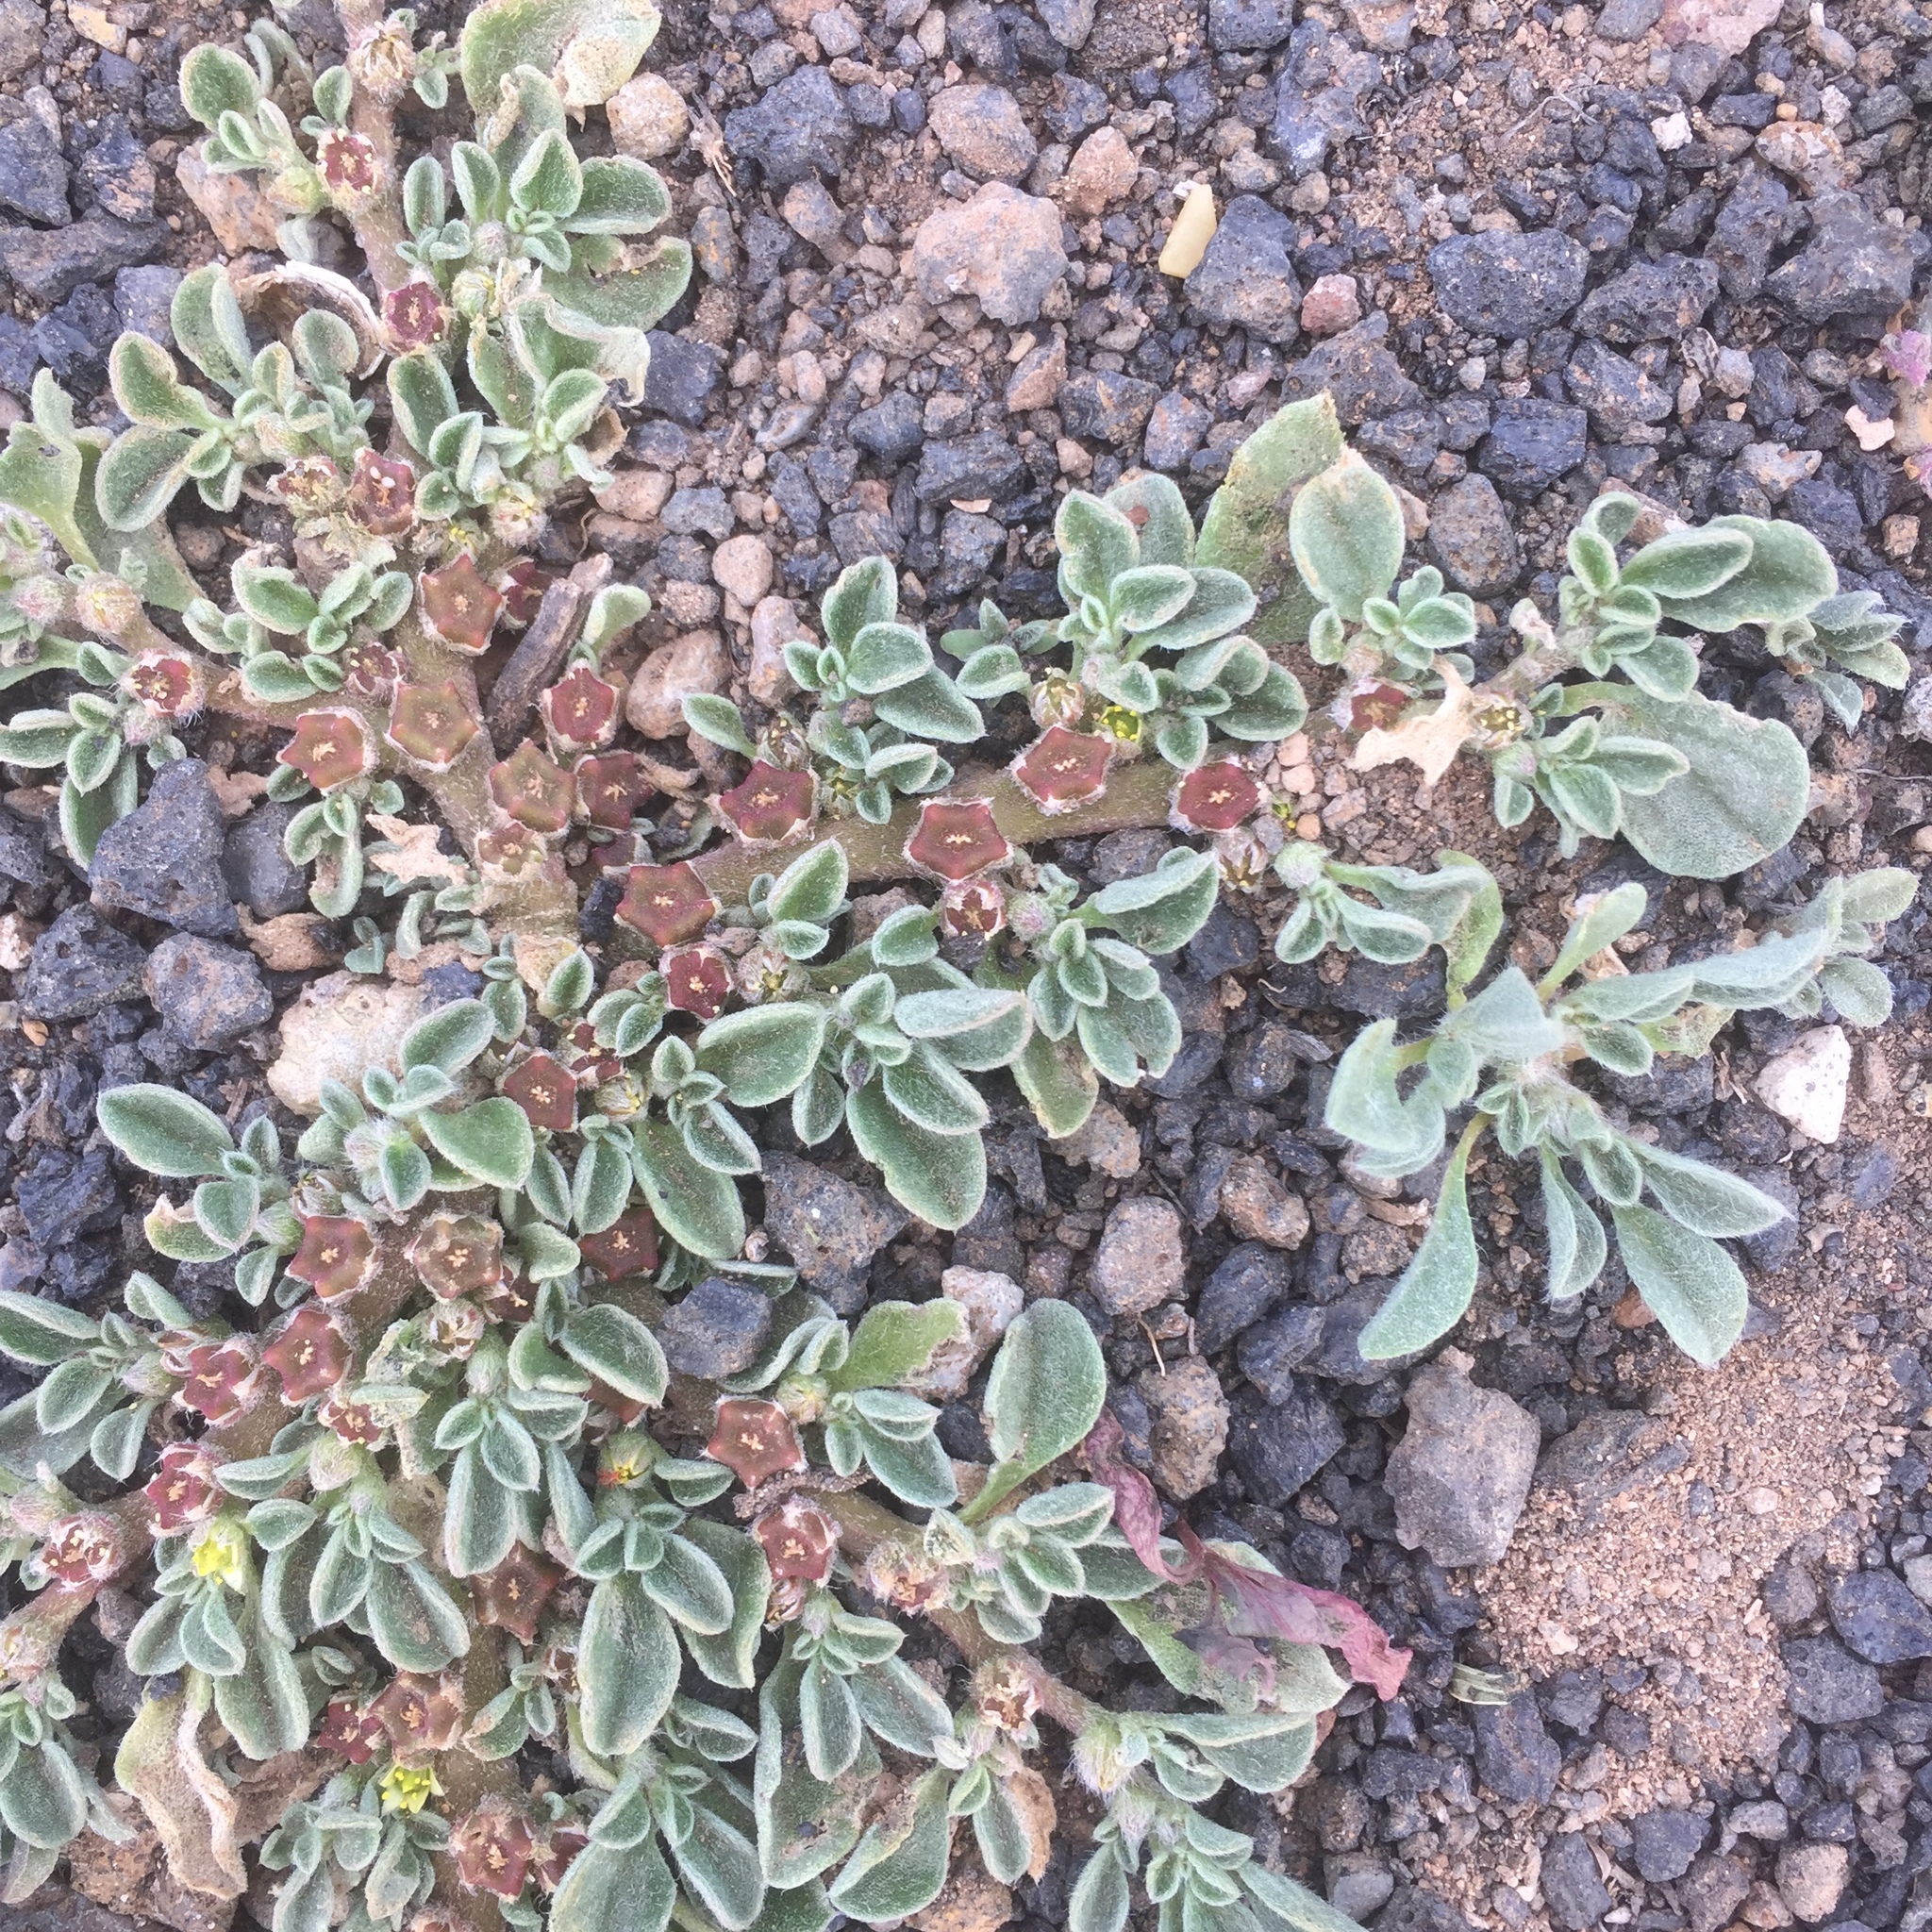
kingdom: Plantae
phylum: Tracheophyta
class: Magnoliopsida
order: Caryophyllales
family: Aizoaceae
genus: Aizoon
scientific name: Aizoon canariense
